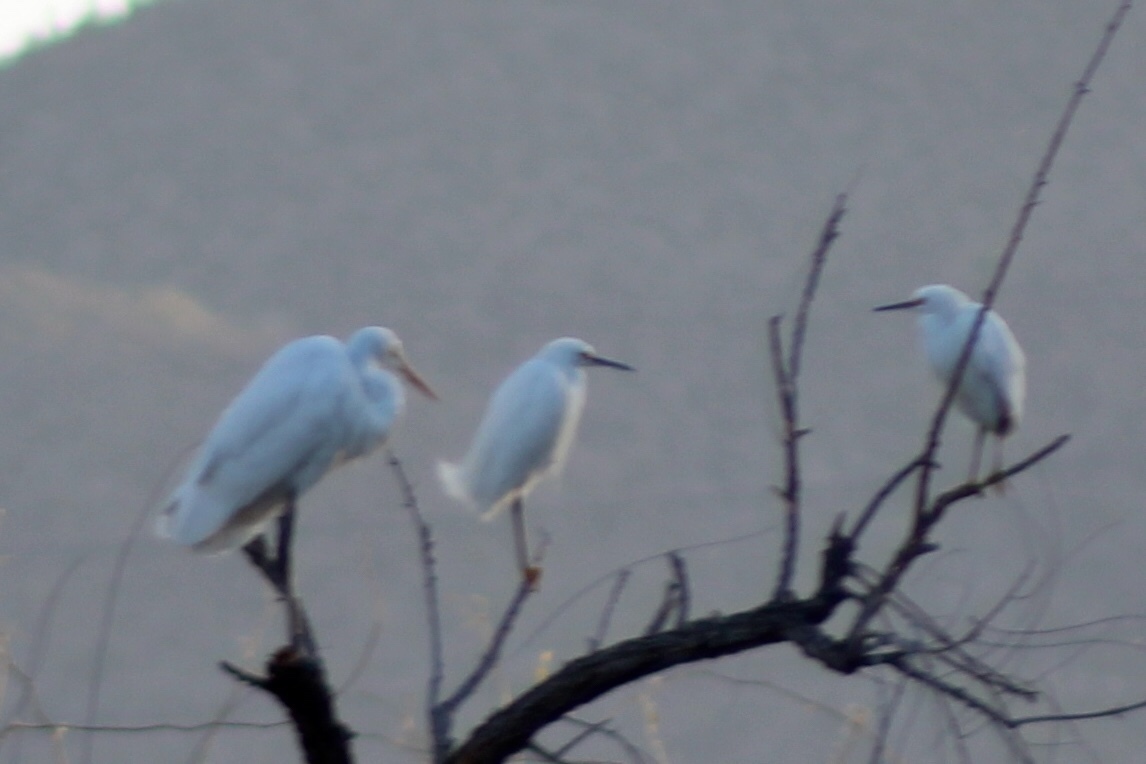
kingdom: Animalia
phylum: Chordata
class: Aves
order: Pelecaniformes
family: Ardeidae
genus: Ardea
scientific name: Ardea alba
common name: Great egret
